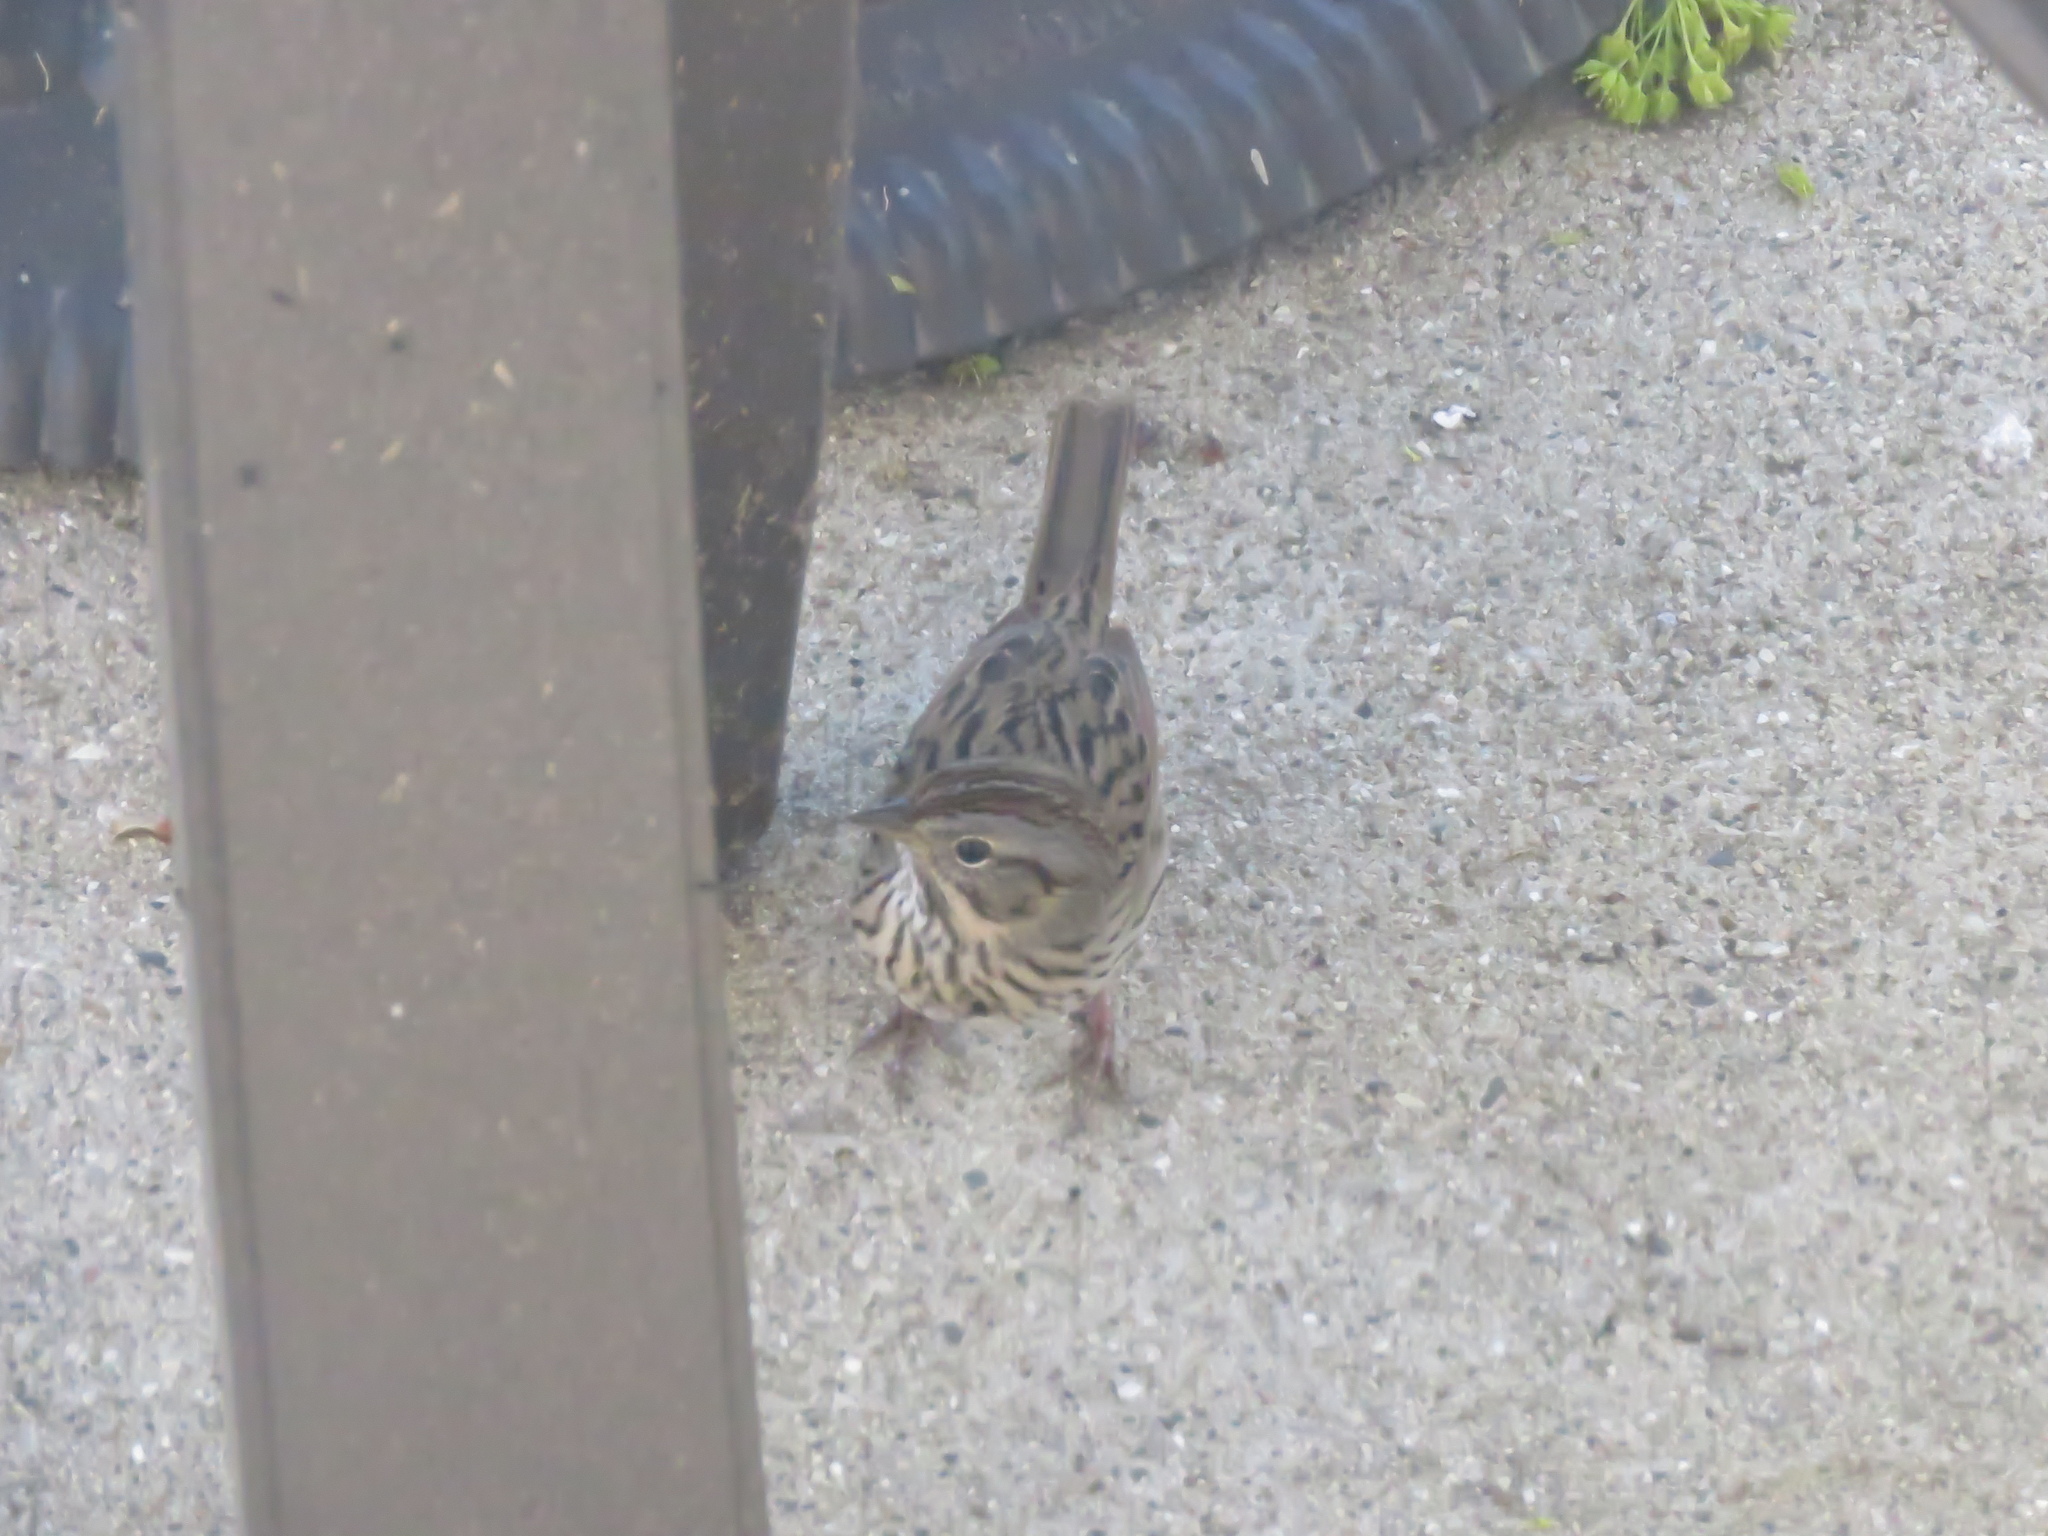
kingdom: Animalia
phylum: Chordata
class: Aves
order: Passeriformes
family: Passerellidae
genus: Melospiza
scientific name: Melospiza lincolnii
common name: Lincoln's sparrow
